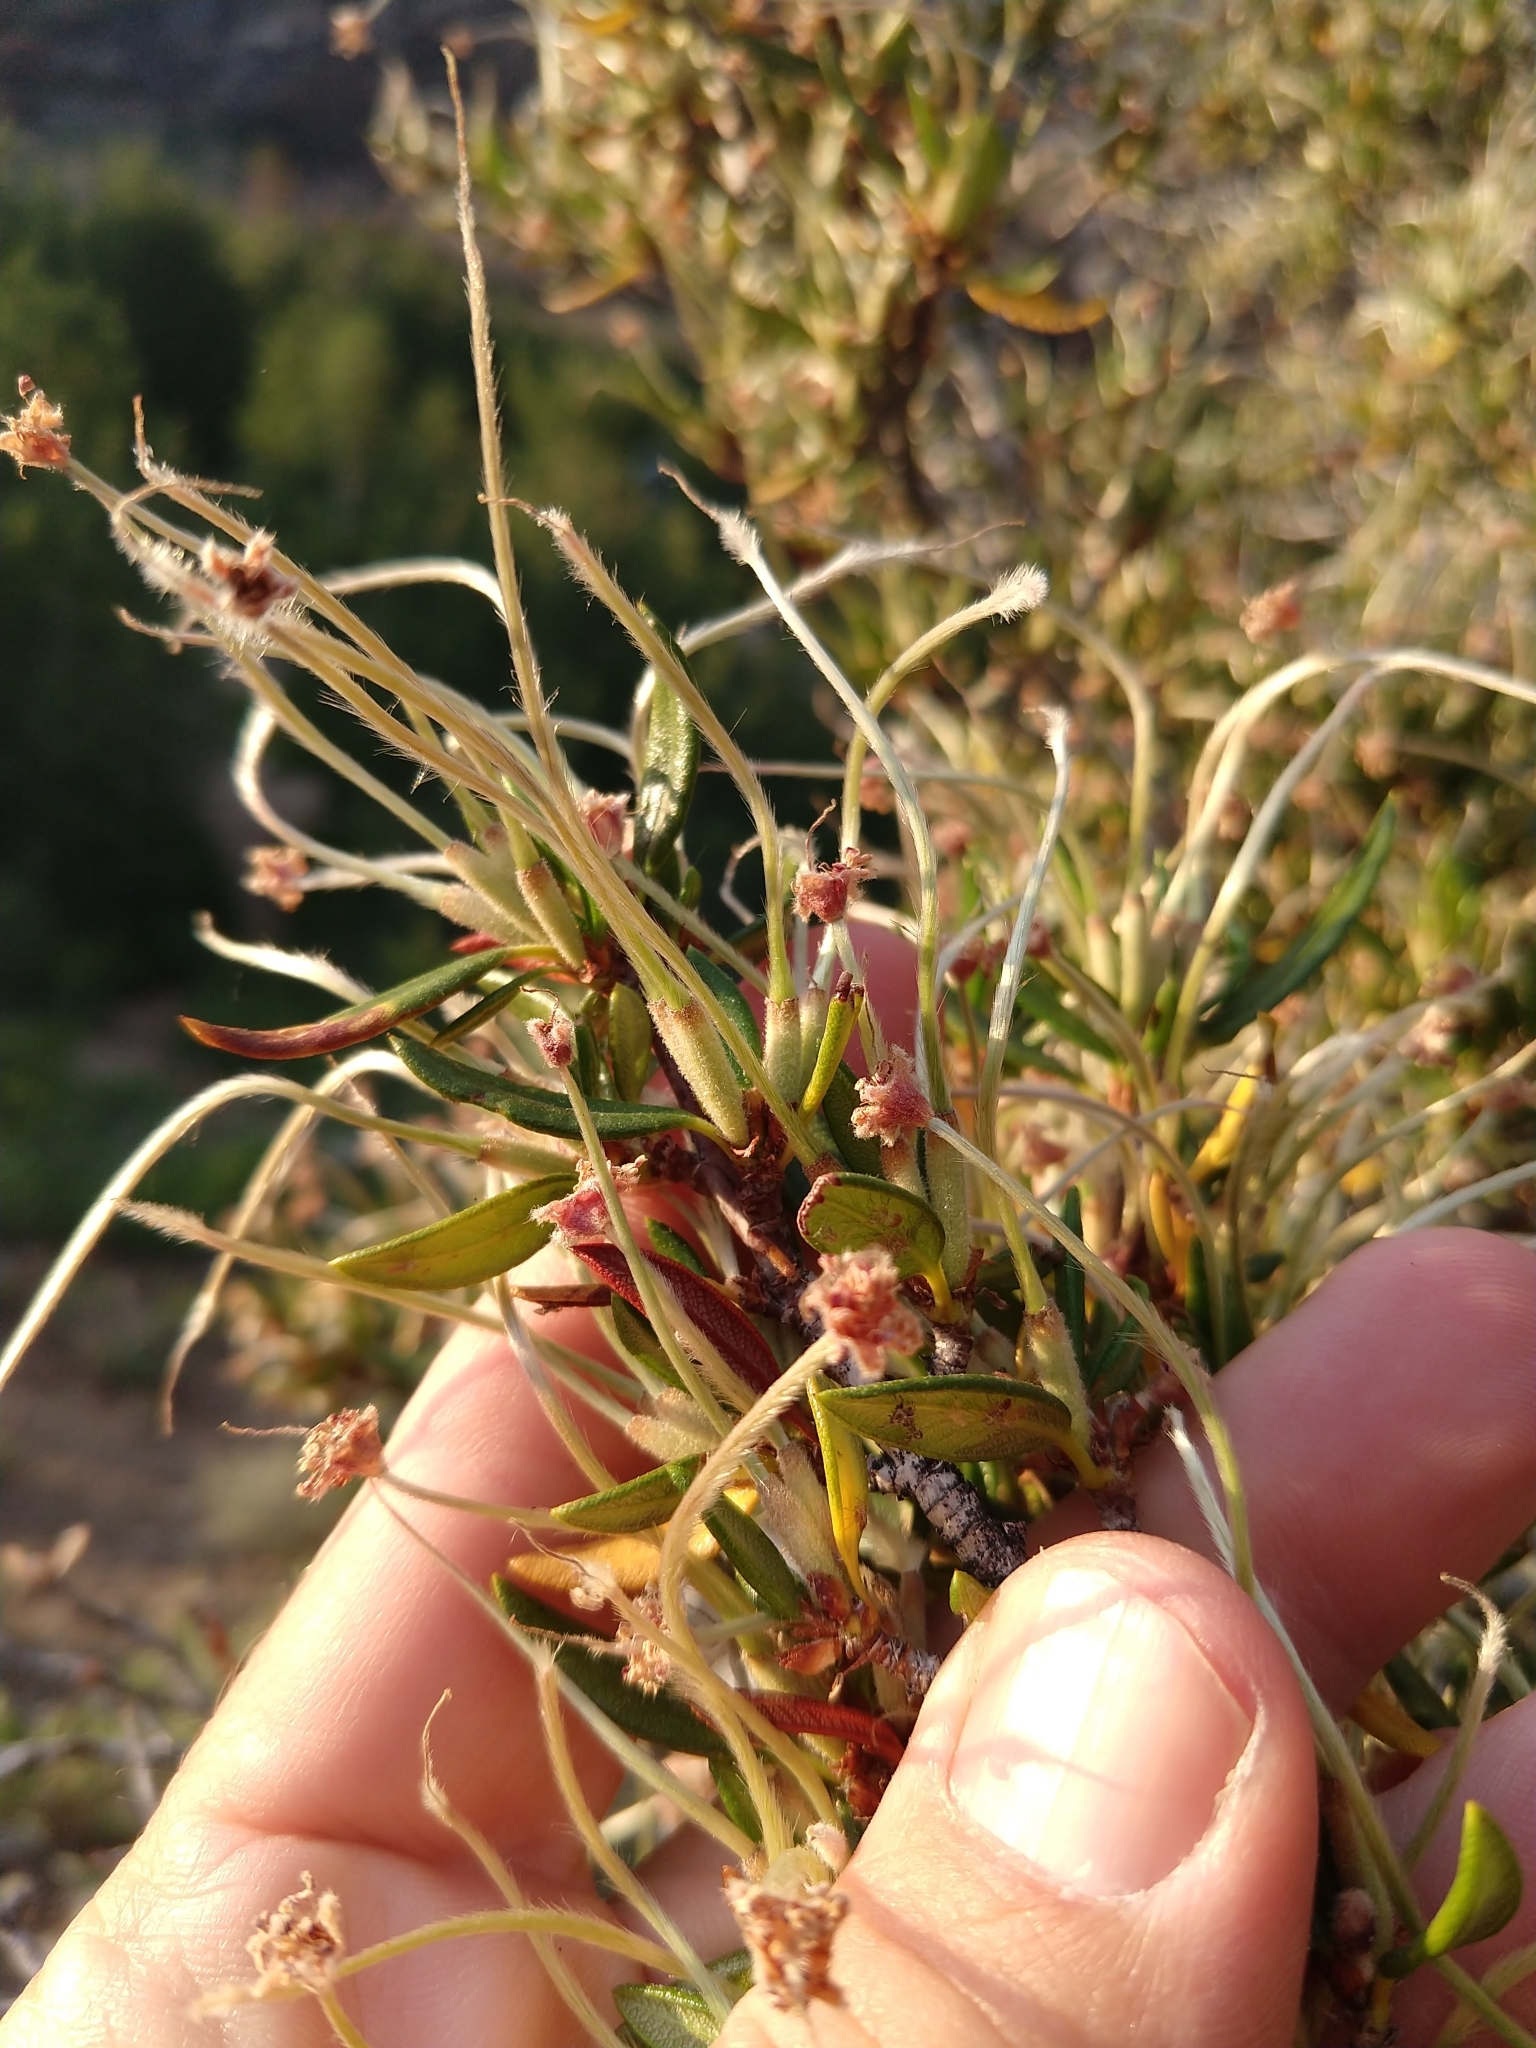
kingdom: Plantae
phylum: Tracheophyta
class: Magnoliopsida
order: Rosales
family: Rosaceae
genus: Cercocarpus
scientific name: Cercocarpus ledifolius
